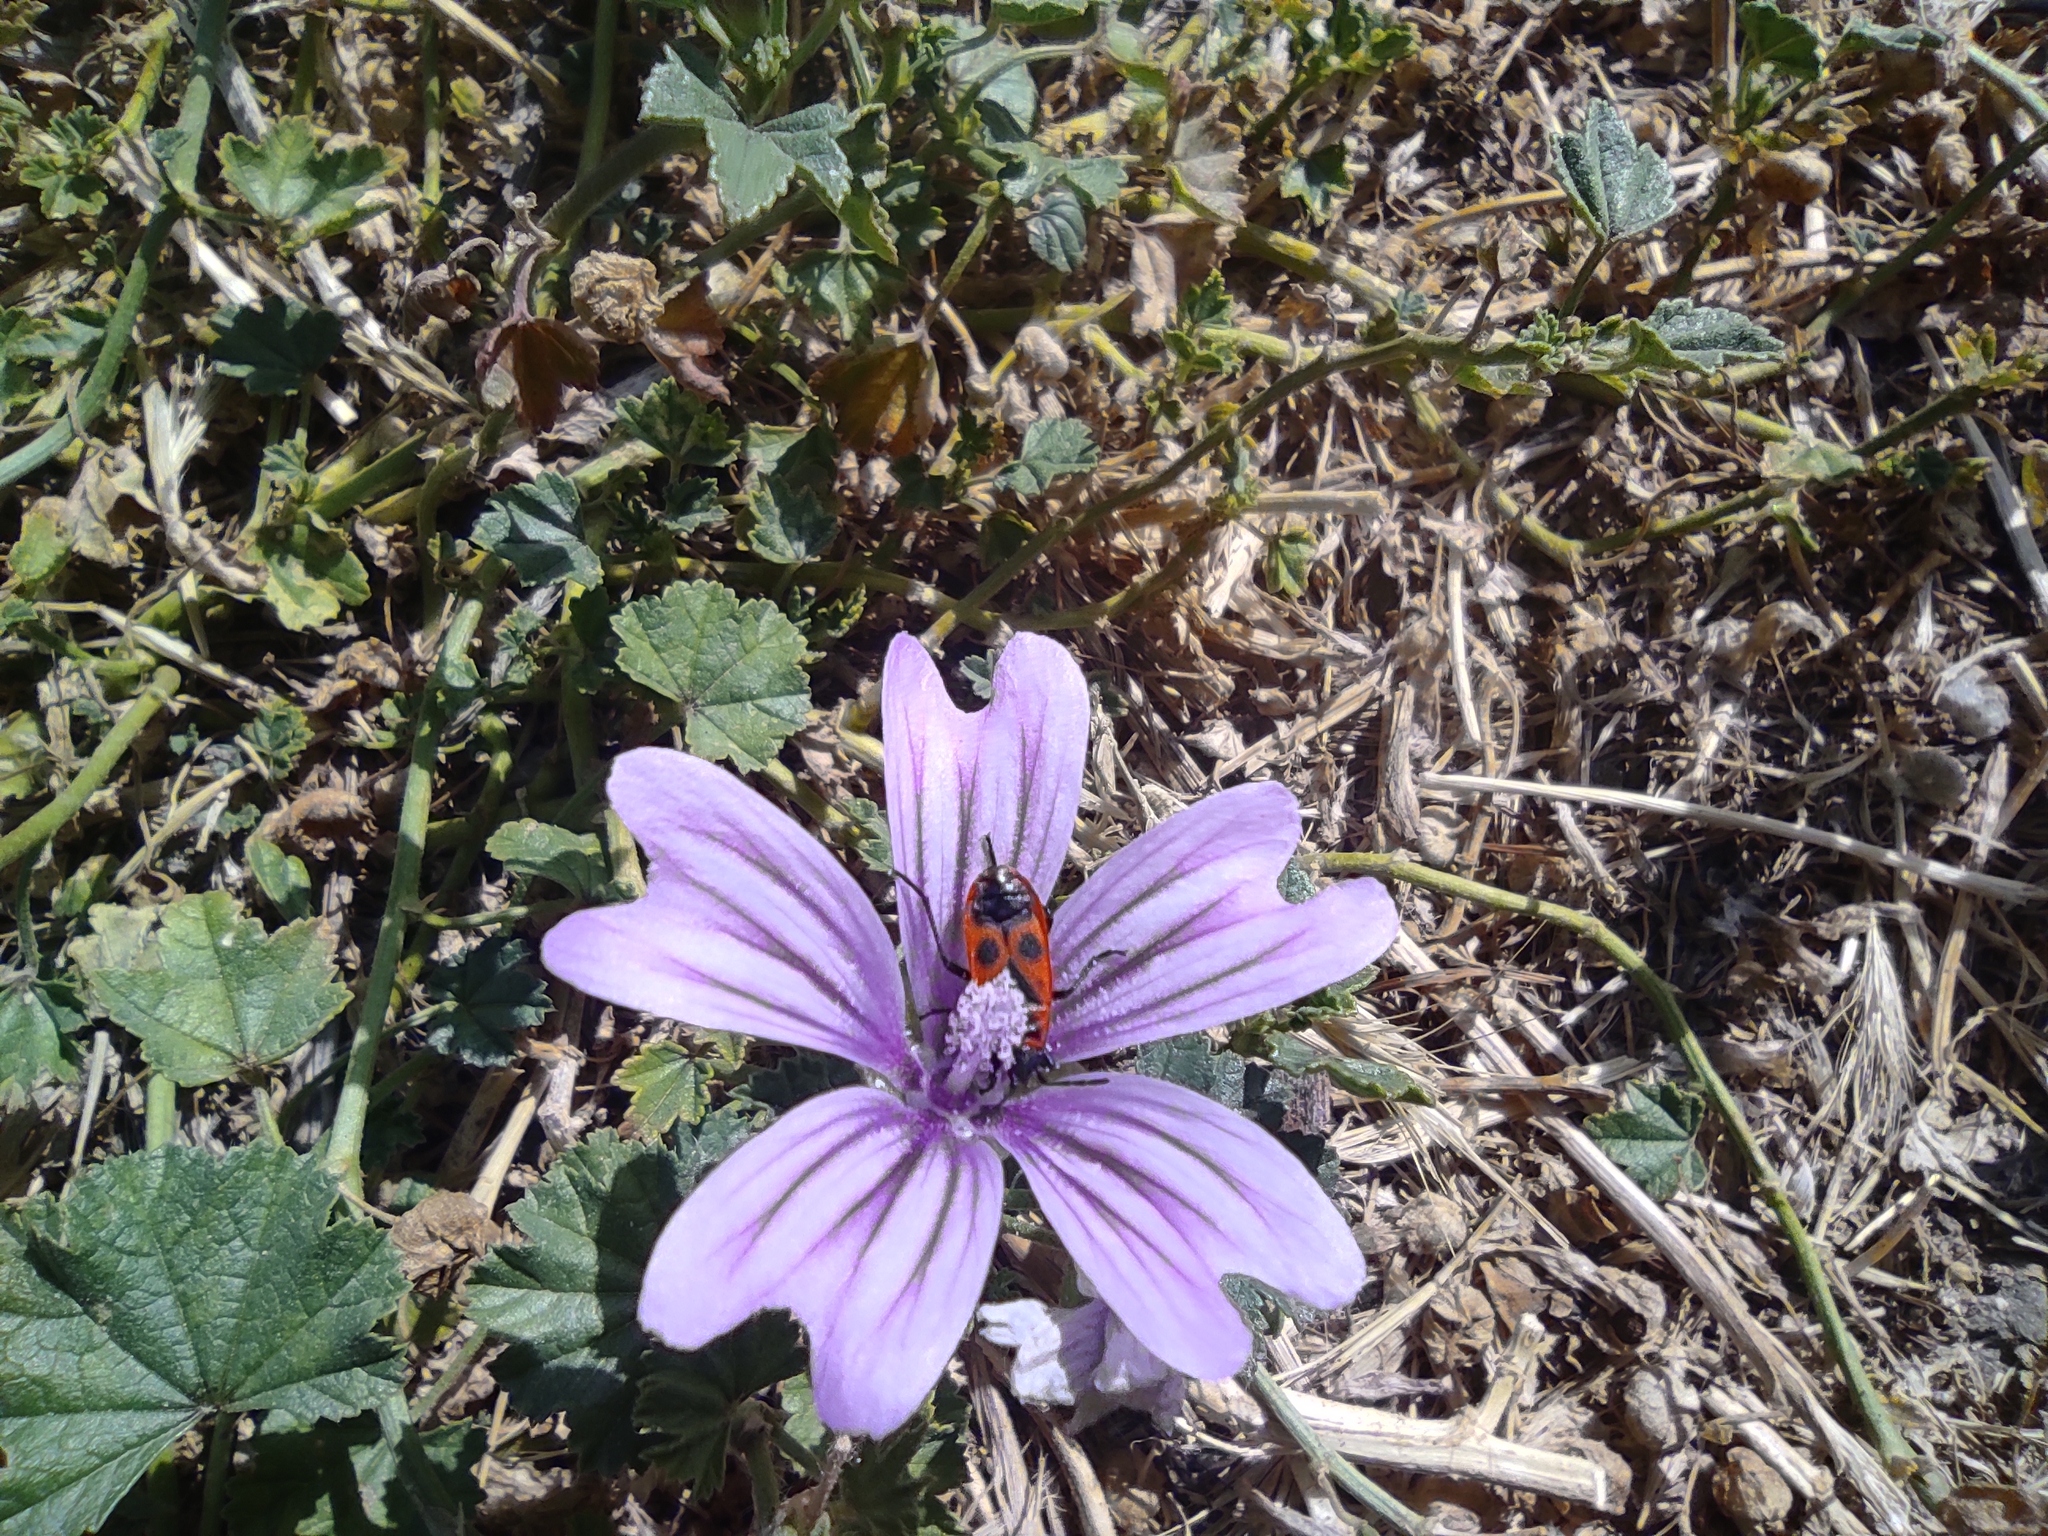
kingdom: Plantae
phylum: Tracheophyta
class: Magnoliopsida
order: Malvales
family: Malvaceae
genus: Malva
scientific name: Malva sylvestris
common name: Common mallow
